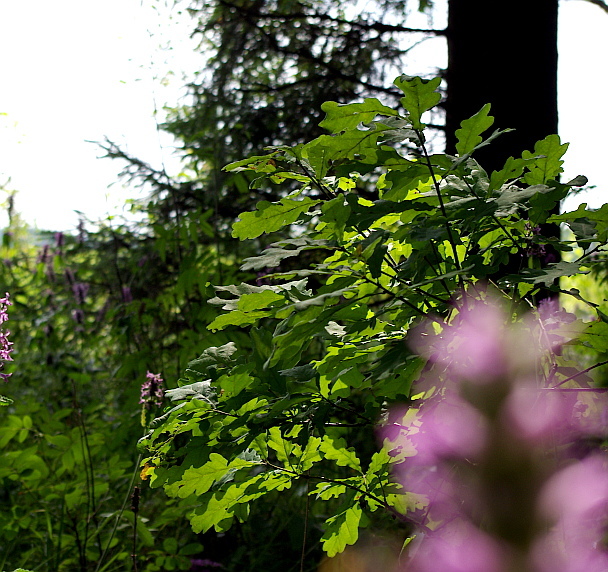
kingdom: Plantae
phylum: Tracheophyta
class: Magnoliopsida
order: Fagales
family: Fagaceae
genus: Quercus
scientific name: Quercus robur
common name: Pedunculate oak
